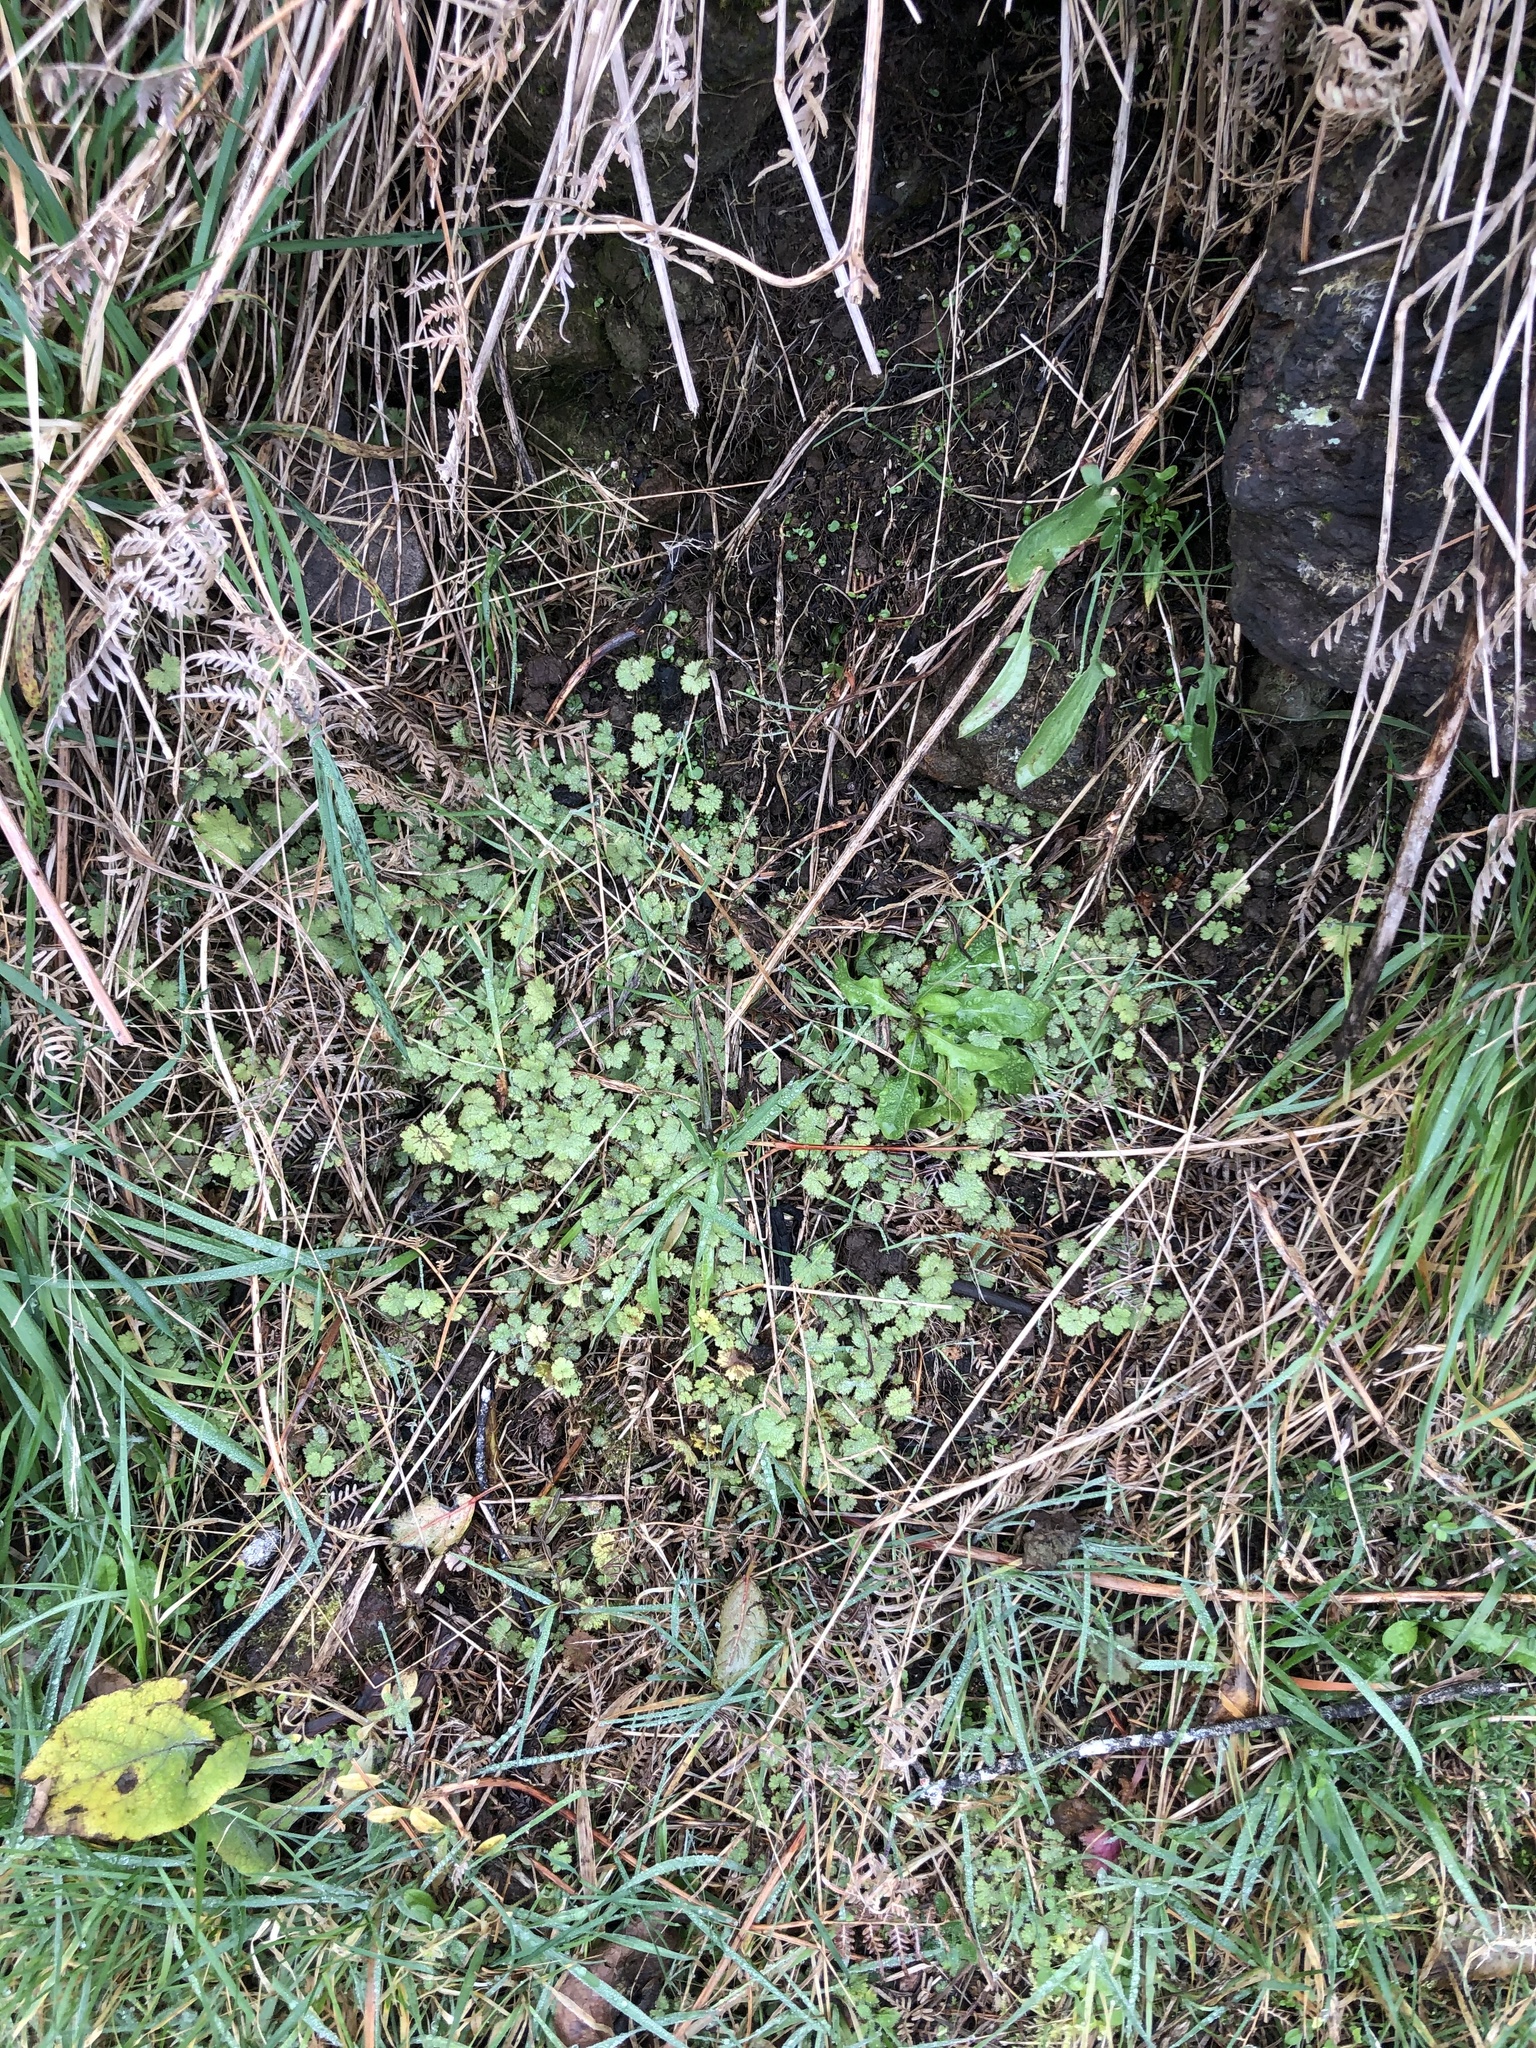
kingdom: Plantae
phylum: Tracheophyta
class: Magnoliopsida
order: Apiales
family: Araliaceae
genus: Hydrocotyle
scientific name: Hydrocotyle moschata
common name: Hairy pennywort
